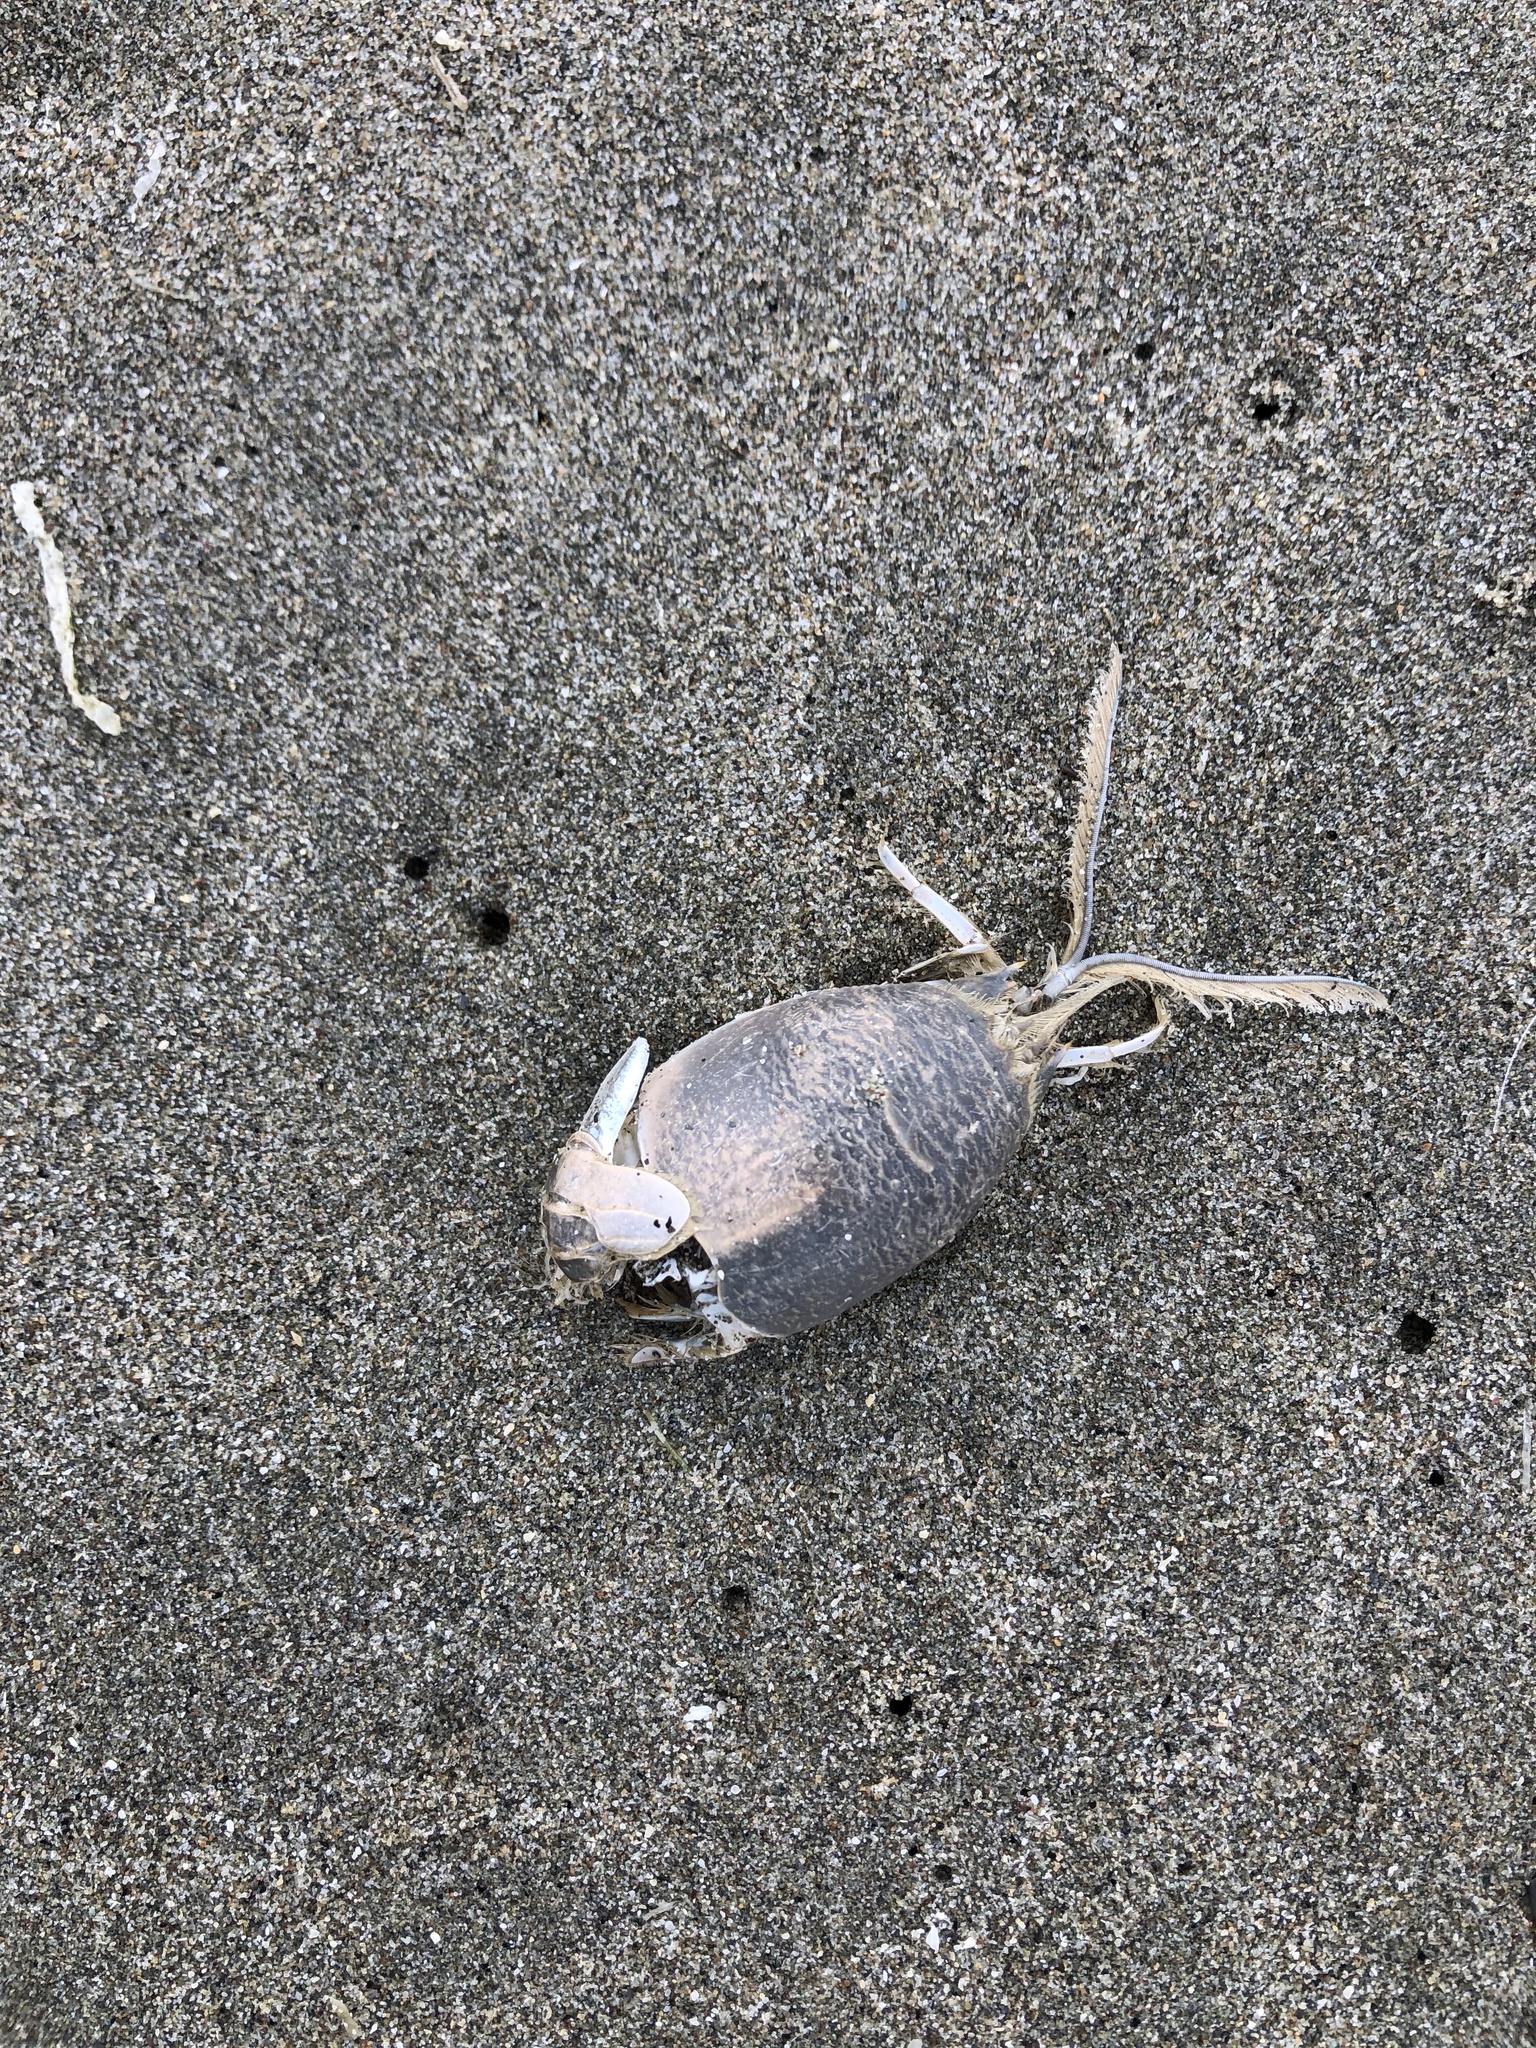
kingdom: Animalia
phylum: Arthropoda
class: Malacostraca
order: Decapoda
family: Hippidae
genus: Emerita
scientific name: Emerita analoga
